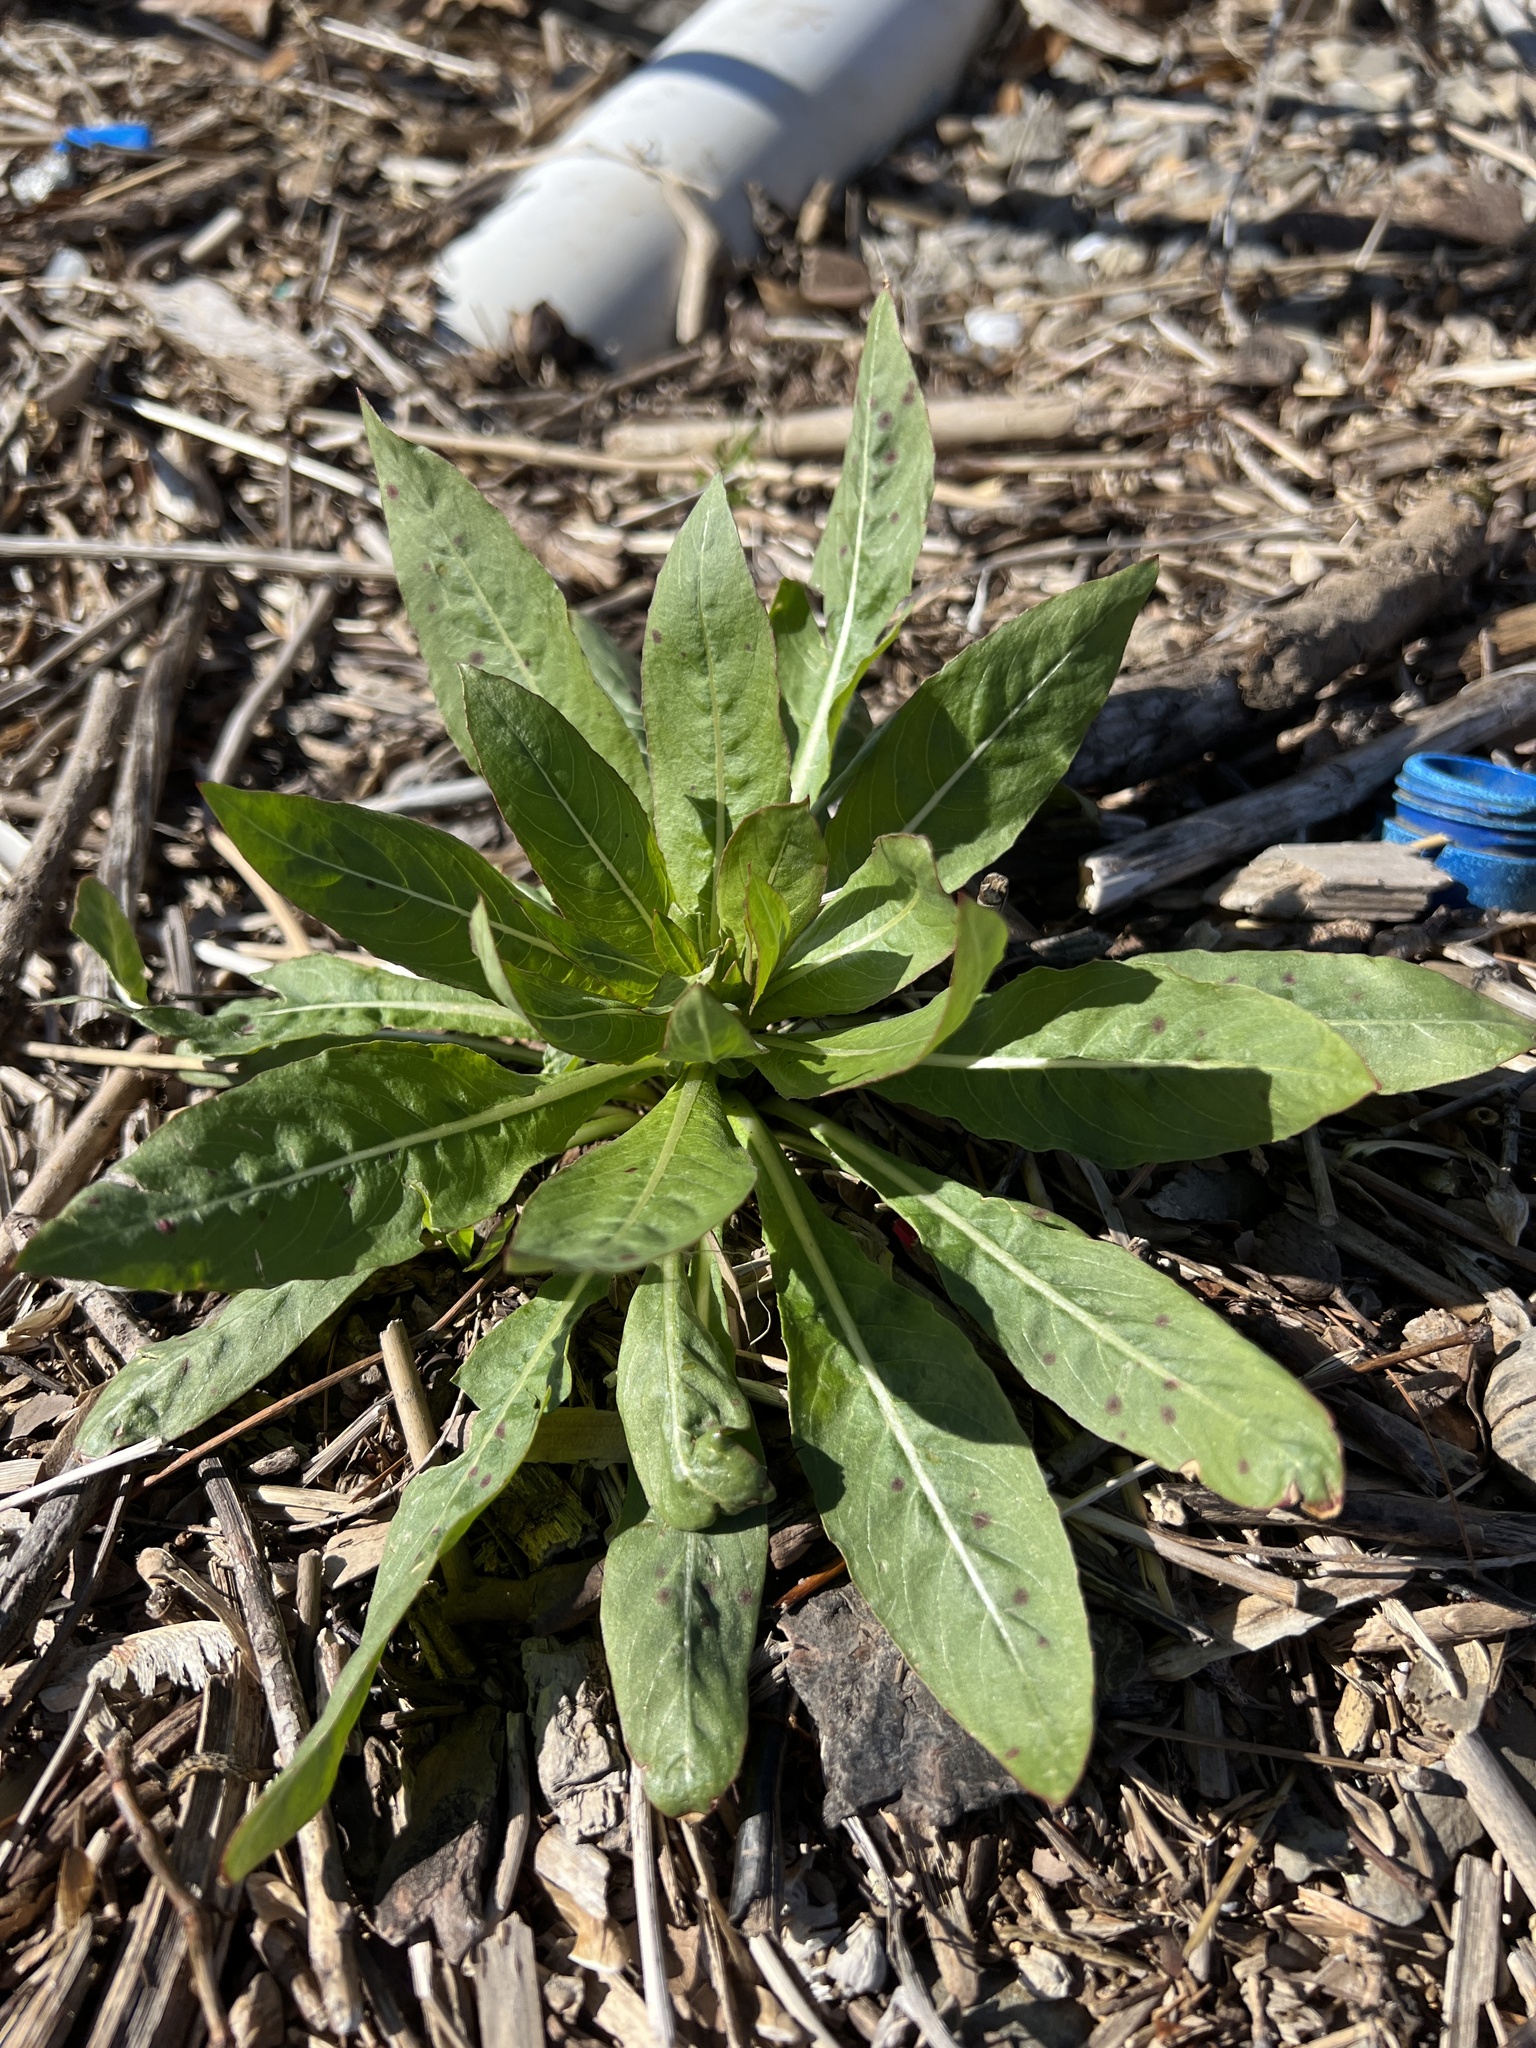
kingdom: Plantae
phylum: Tracheophyta
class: Magnoliopsida
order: Myrtales
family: Onagraceae
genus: Oenothera
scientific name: Oenothera biennis
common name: Common evening-primrose
